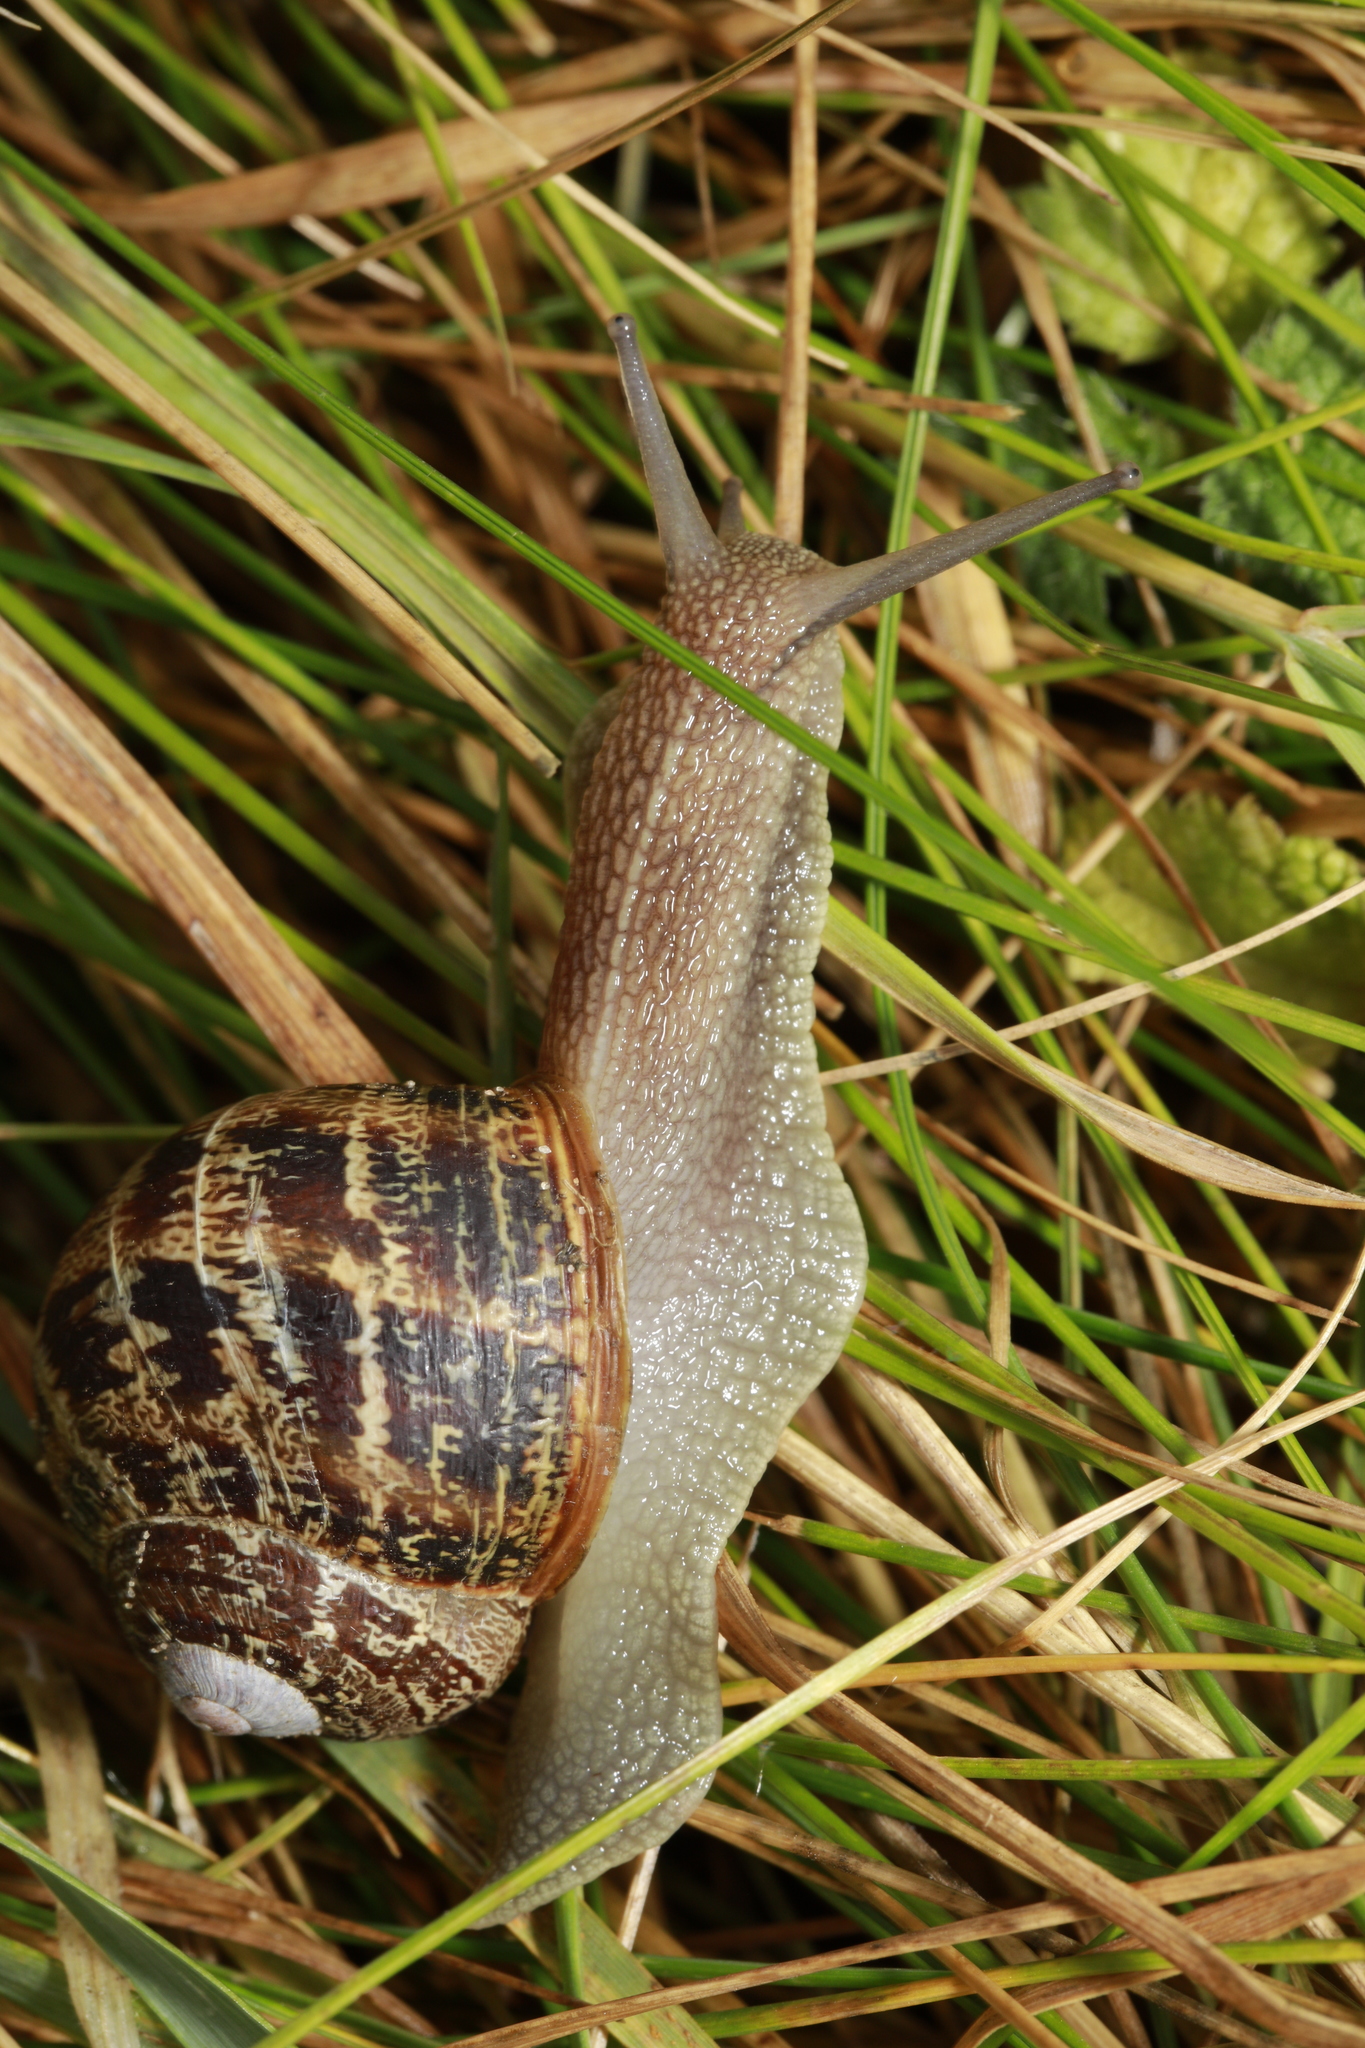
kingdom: Animalia
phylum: Mollusca
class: Gastropoda
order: Stylommatophora
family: Helicidae
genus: Cornu
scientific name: Cornu aspersum
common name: Brown garden snail
